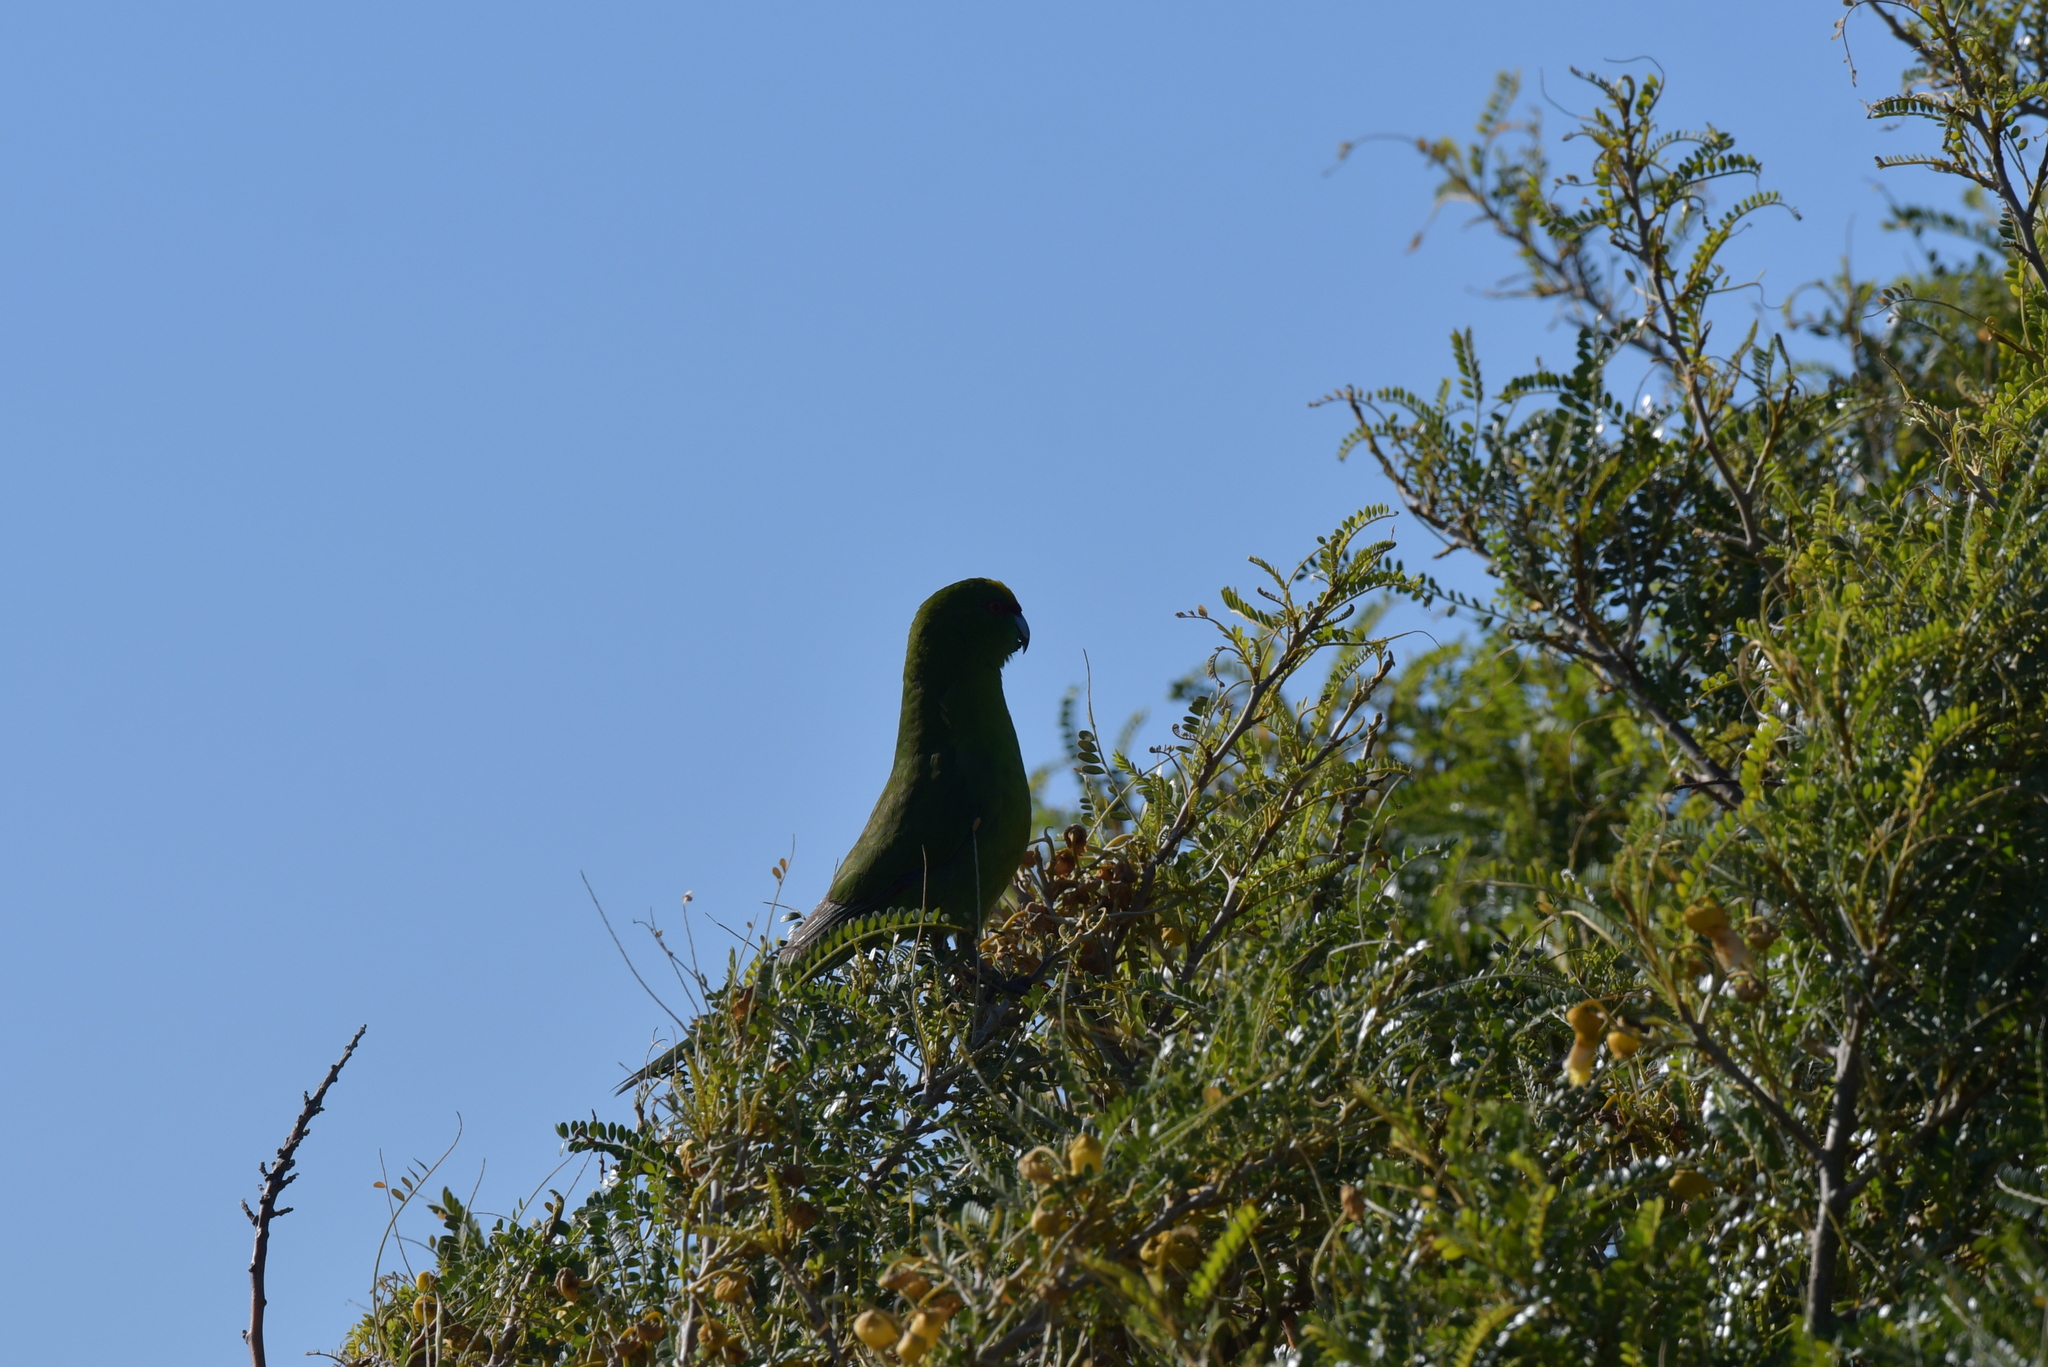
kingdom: Animalia
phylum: Chordata
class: Aves
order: Psittaciformes
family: Psittacidae
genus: Cyanoramphus
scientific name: Cyanoramphus auriceps
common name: Yellow-crowned parakeet
